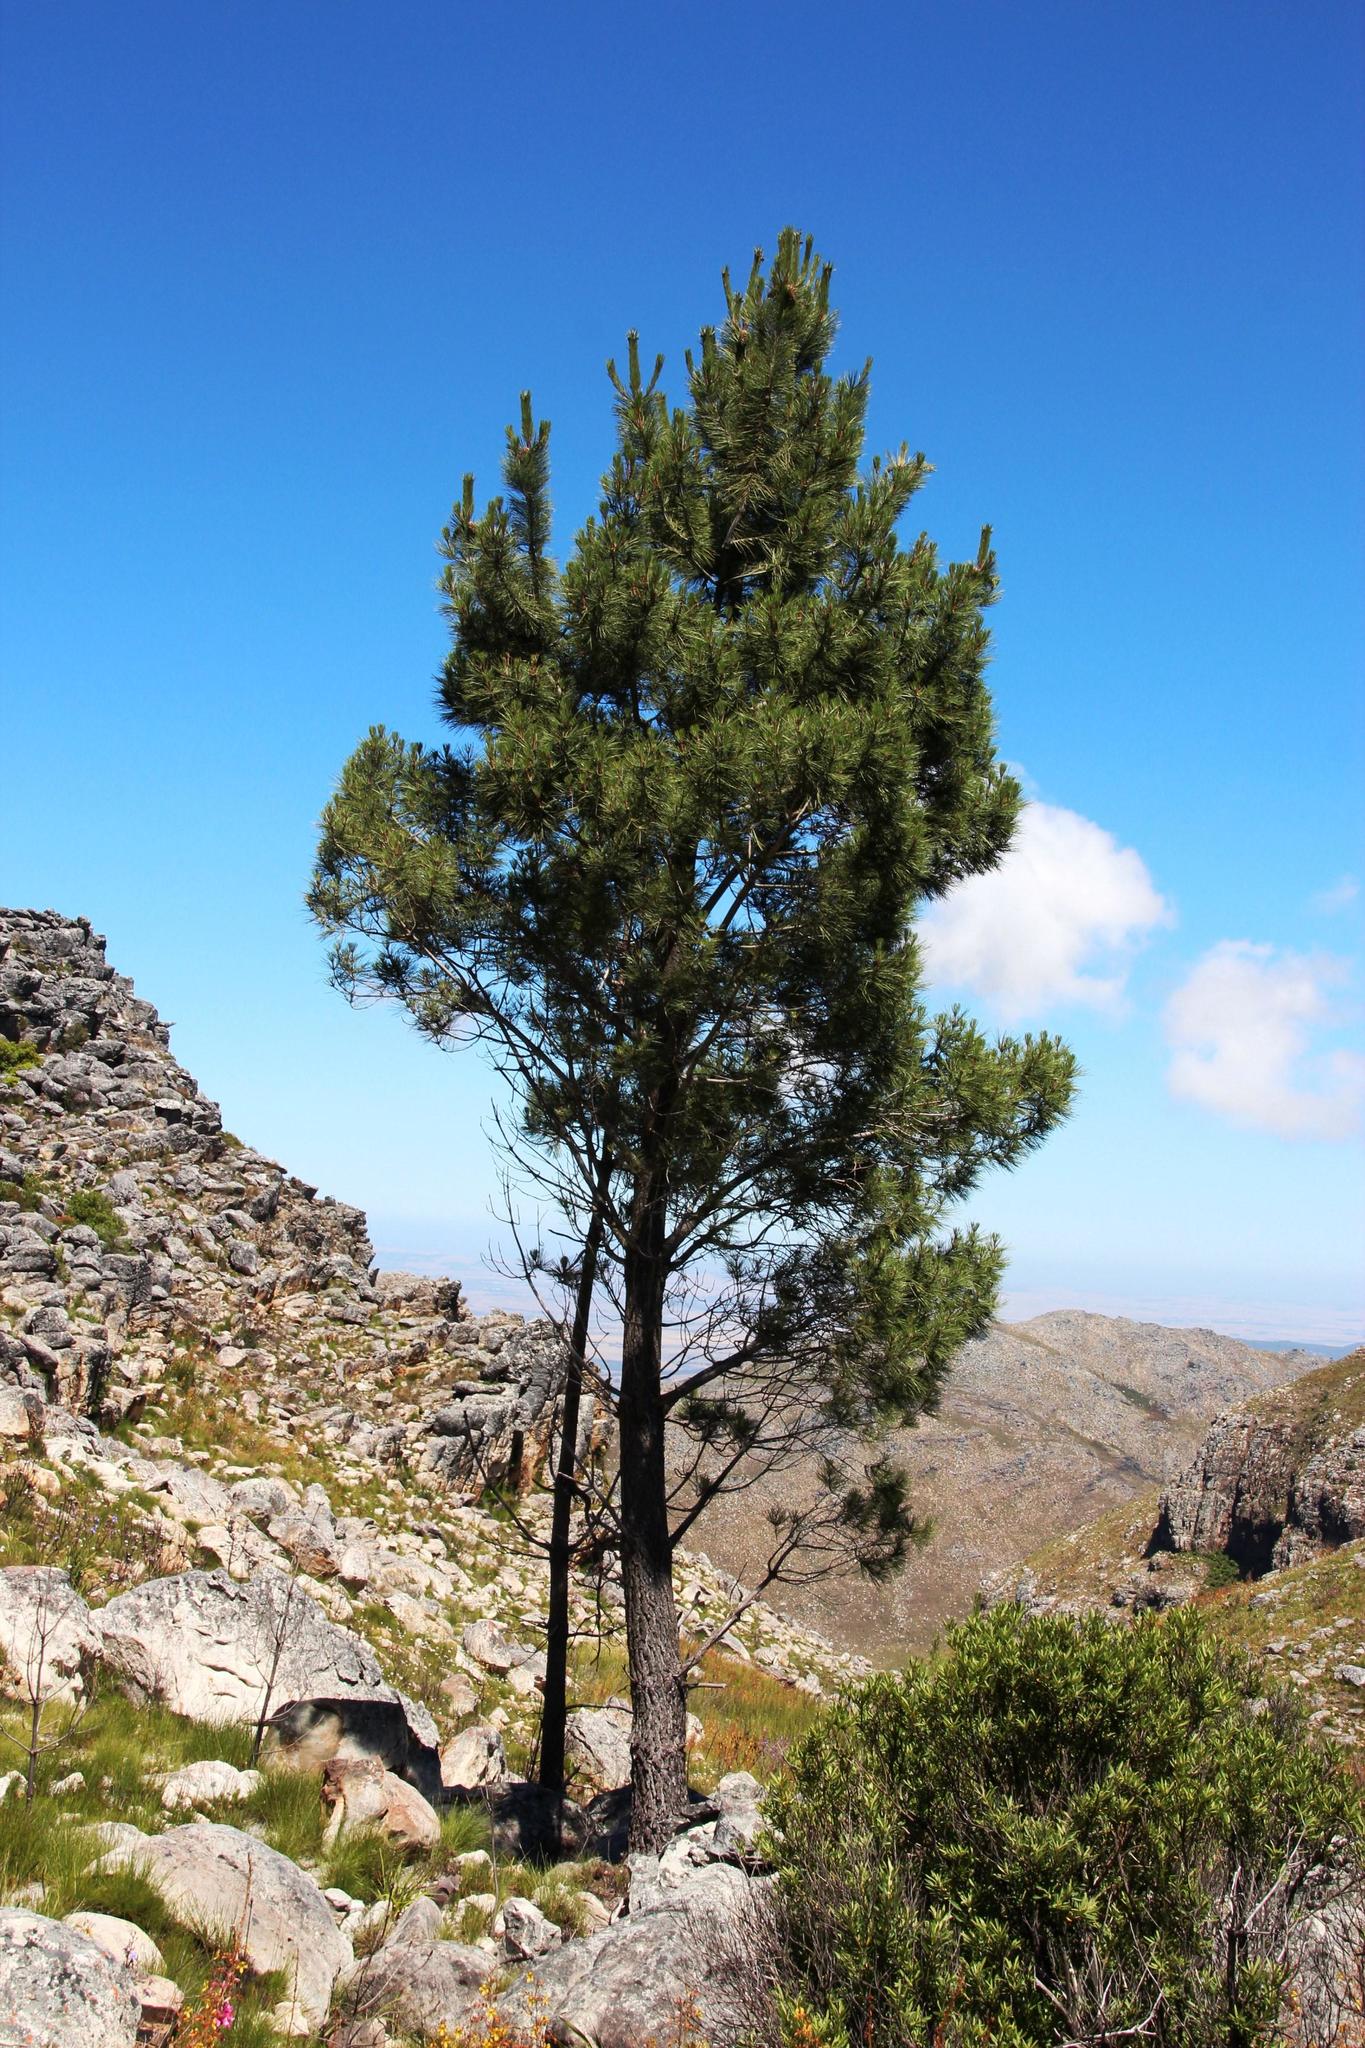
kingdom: Plantae
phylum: Tracheophyta
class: Pinopsida
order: Pinales
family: Pinaceae
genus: Pinus
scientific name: Pinus pinaster
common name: Maritime pine
